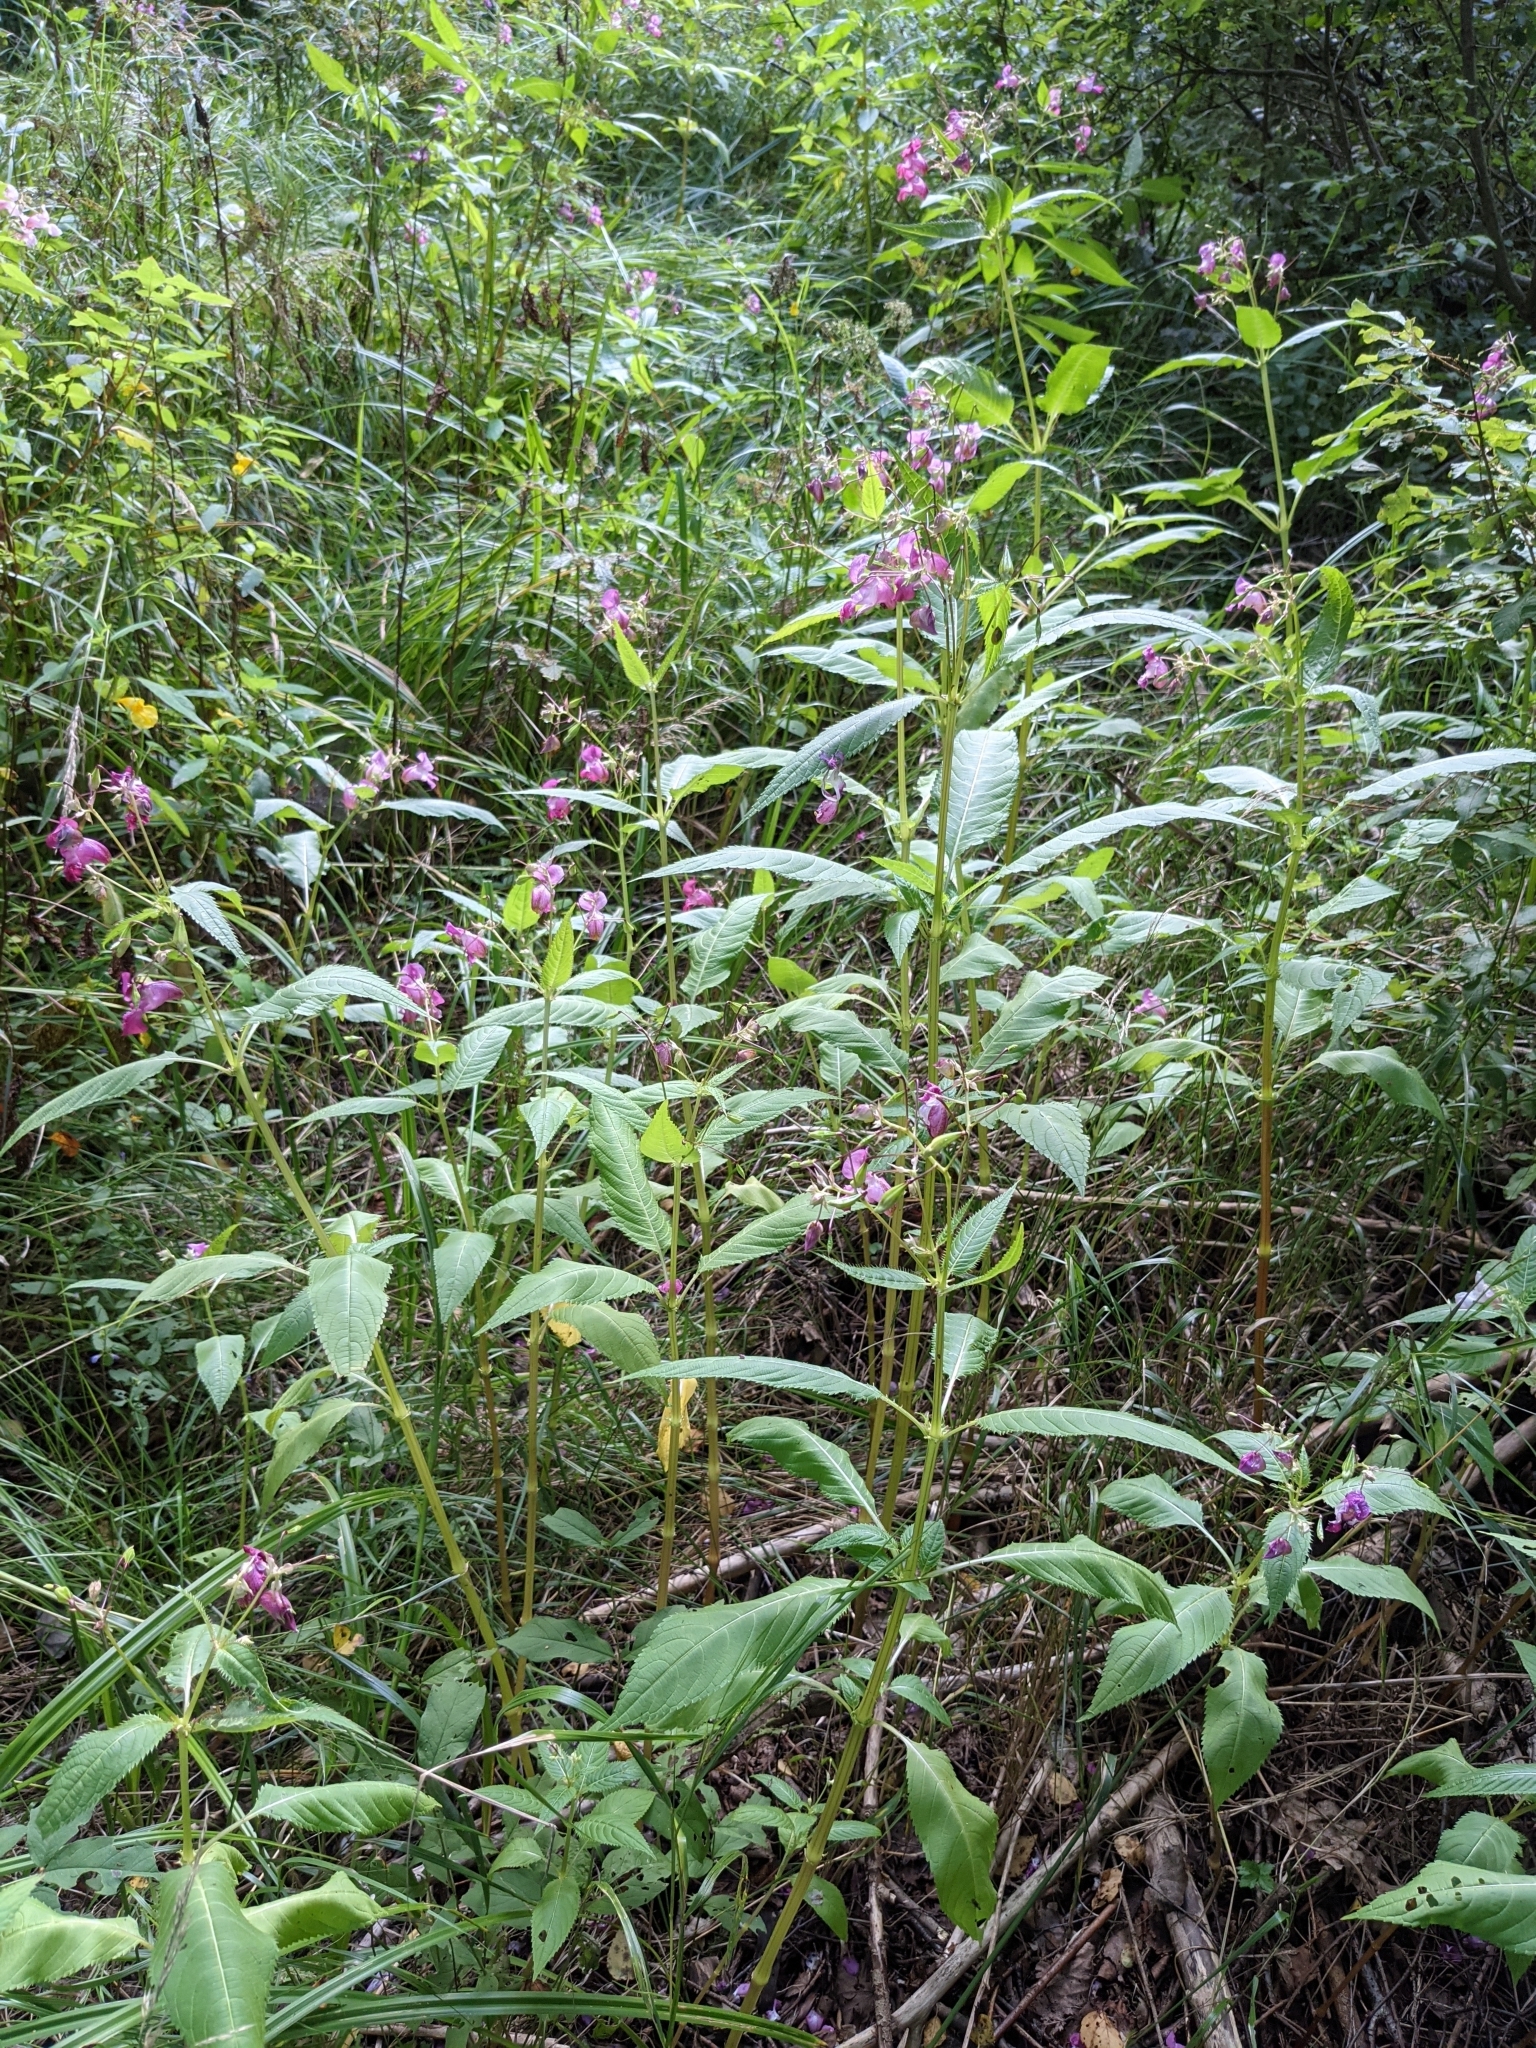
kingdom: Plantae
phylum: Tracheophyta
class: Magnoliopsida
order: Ericales
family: Balsaminaceae
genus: Impatiens
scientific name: Impatiens glandulifera
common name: Himalayan balsam
